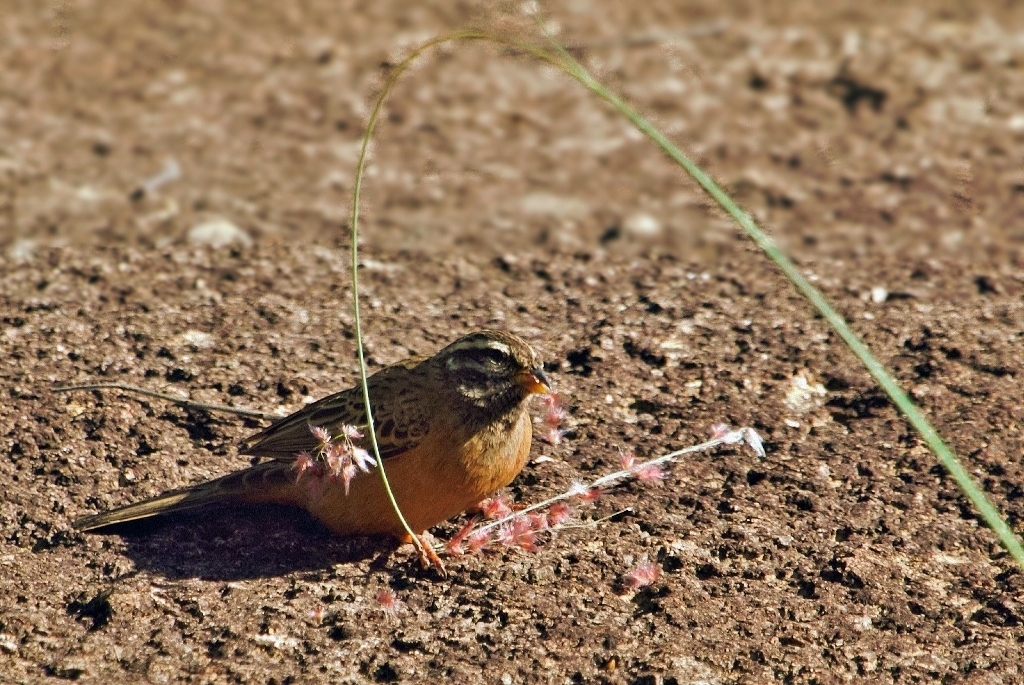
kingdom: Animalia
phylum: Chordata
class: Aves
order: Passeriformes
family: Emberizidae
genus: Emberiza
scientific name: Emberiza tahapisi
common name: Cinnamon-breasted bunting
